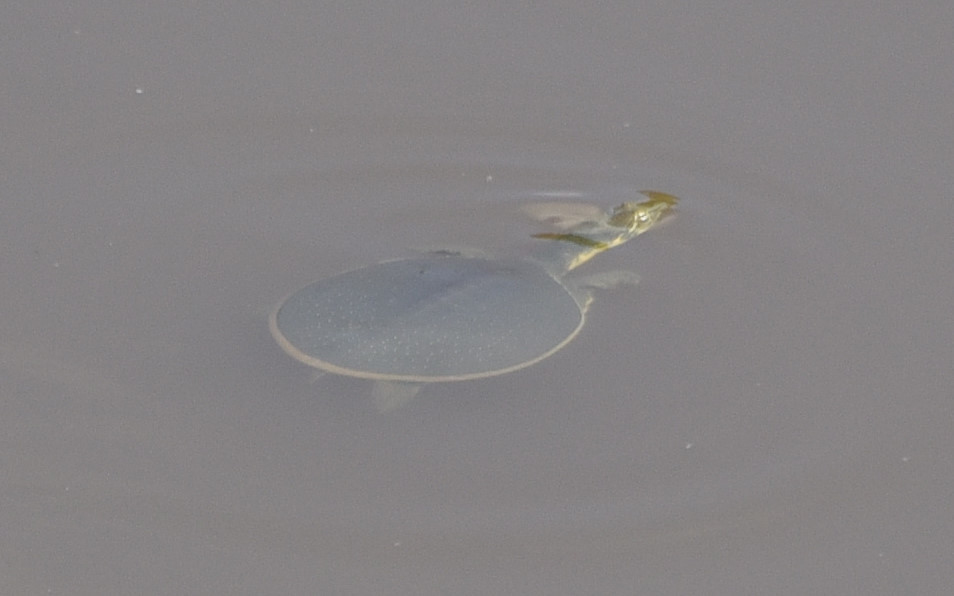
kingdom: Animalia
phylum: Chordata
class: Testudines
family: Trionychidae
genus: Apalone
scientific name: Apalone spinifera
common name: Spiny softshell turtle
